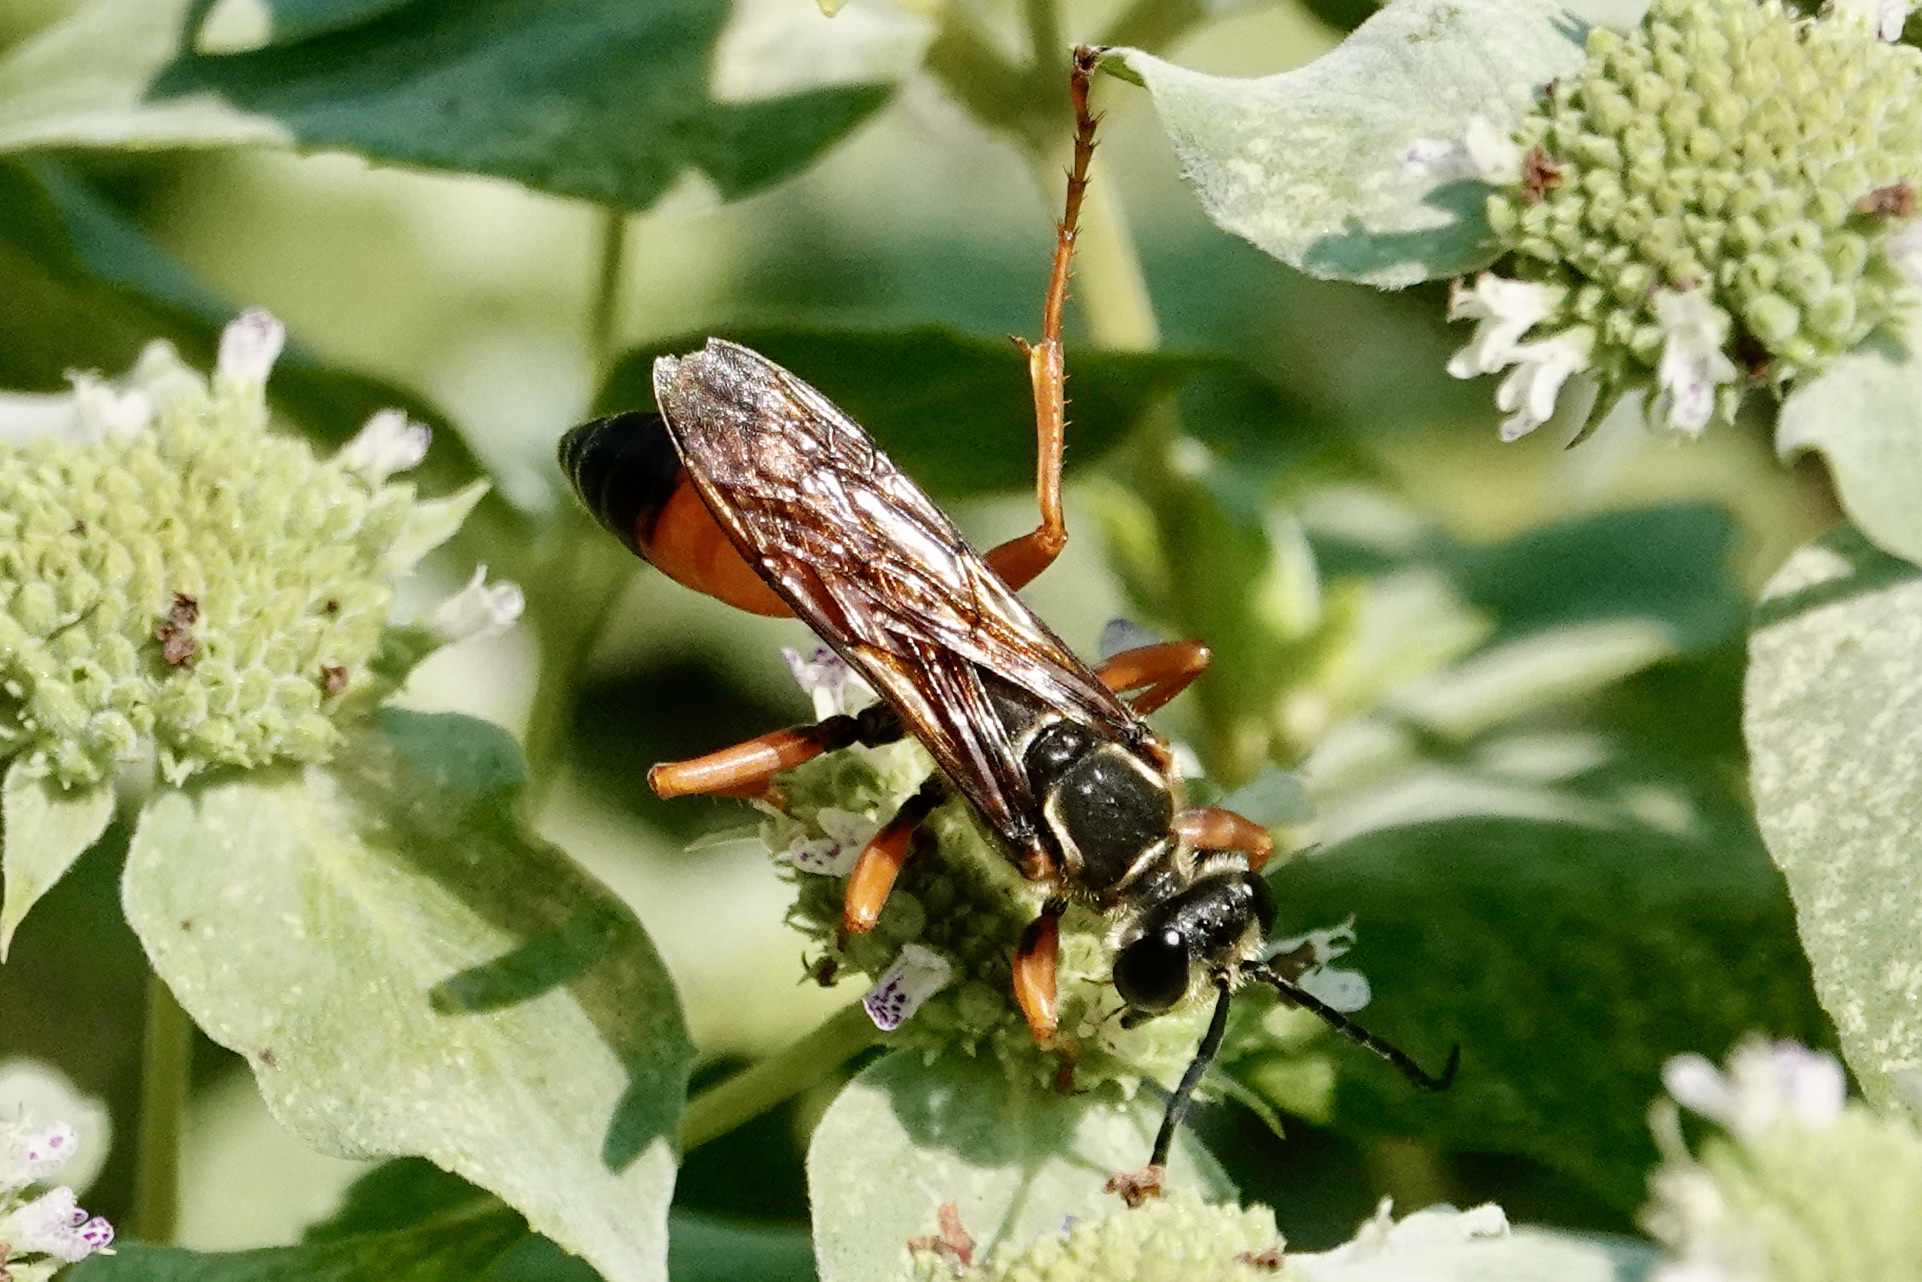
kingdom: Animalia
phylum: Arthropoda
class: Insecta
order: Hymenoptera
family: Sphecidae
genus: Sphex
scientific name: Sphex ichneumoneus
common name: Great golden digger wasp
